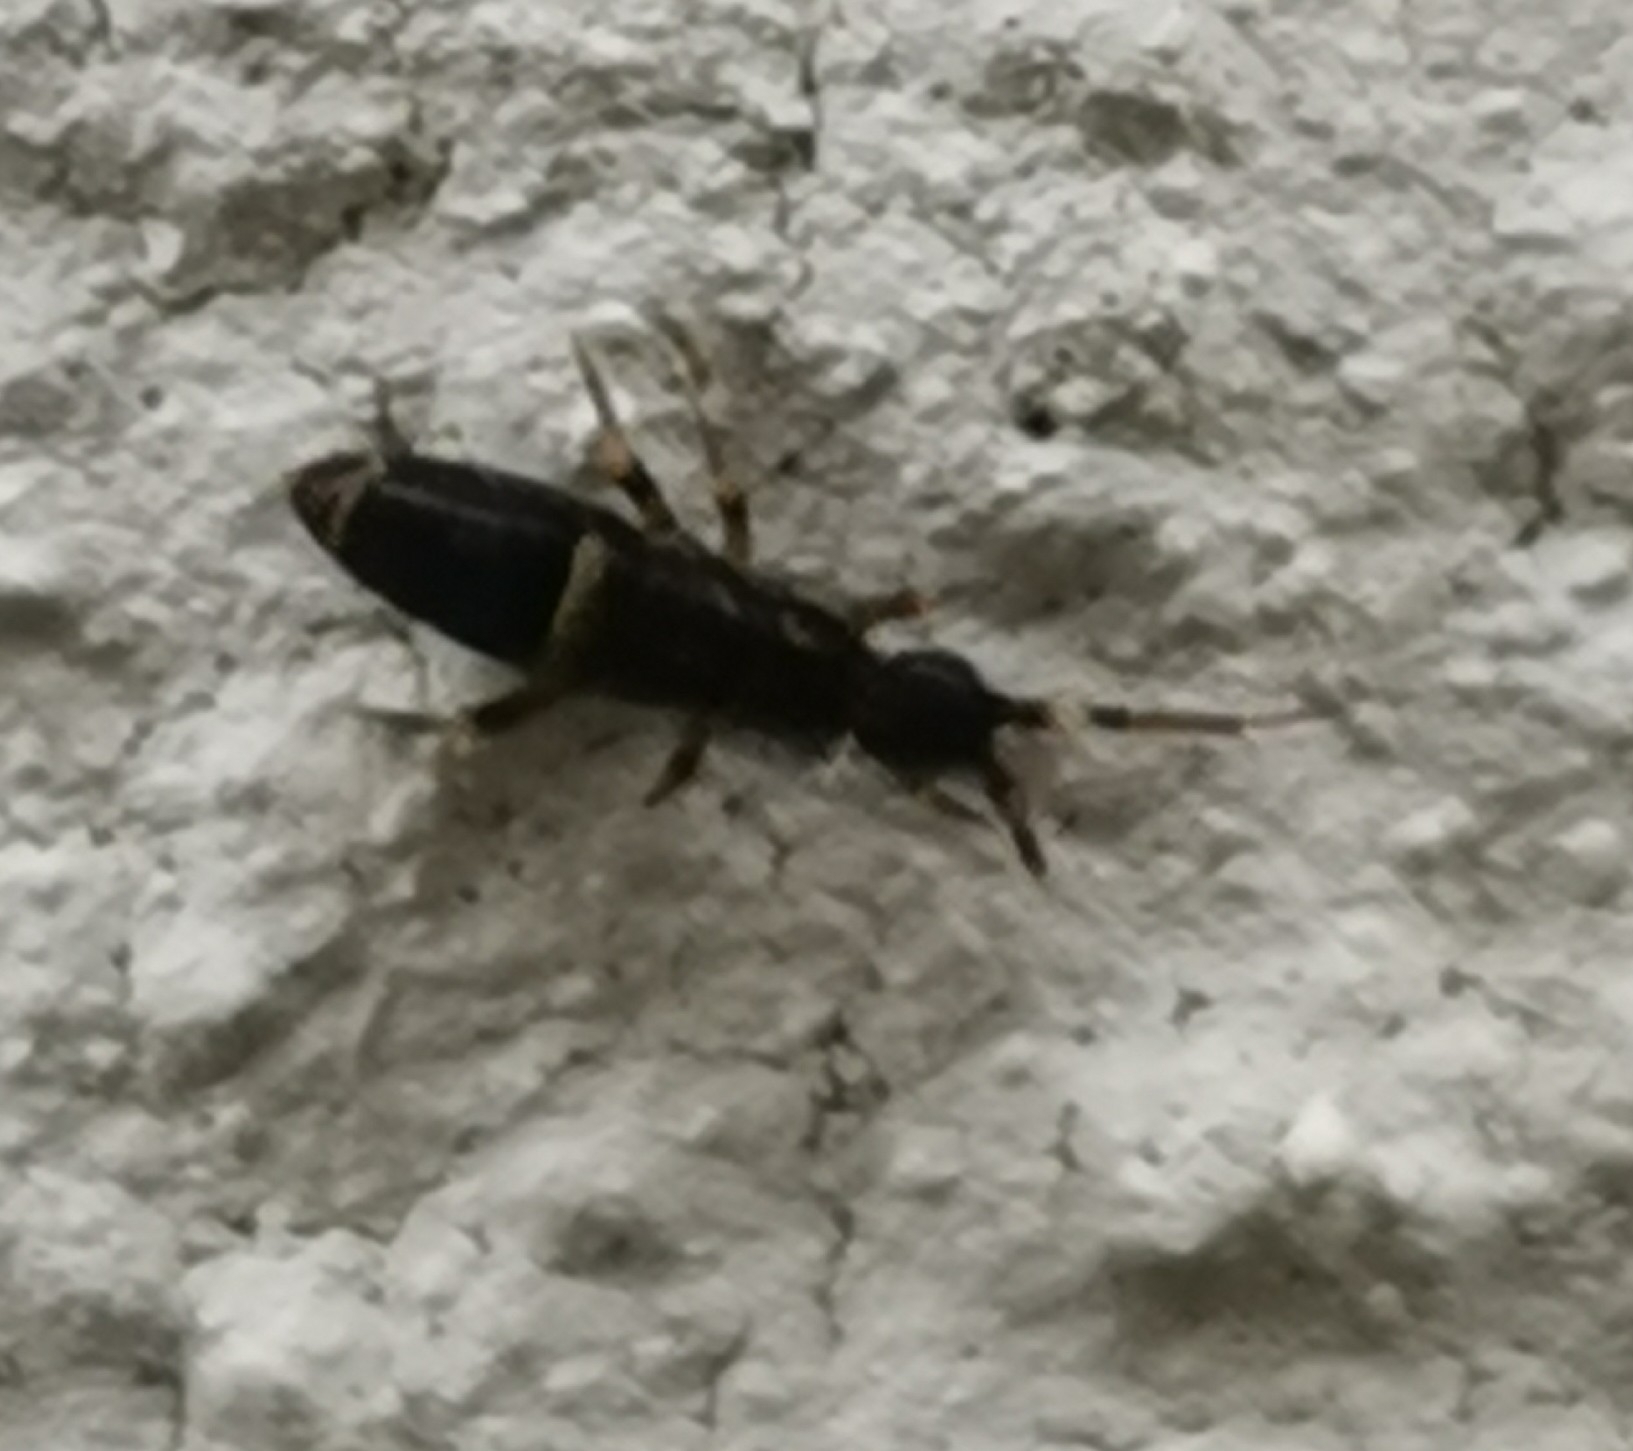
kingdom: Animalia
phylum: Arthropoda
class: Collembola
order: Entomobryomorpha
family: Orchesellidae
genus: Orchesella
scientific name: Orchesella cincta
